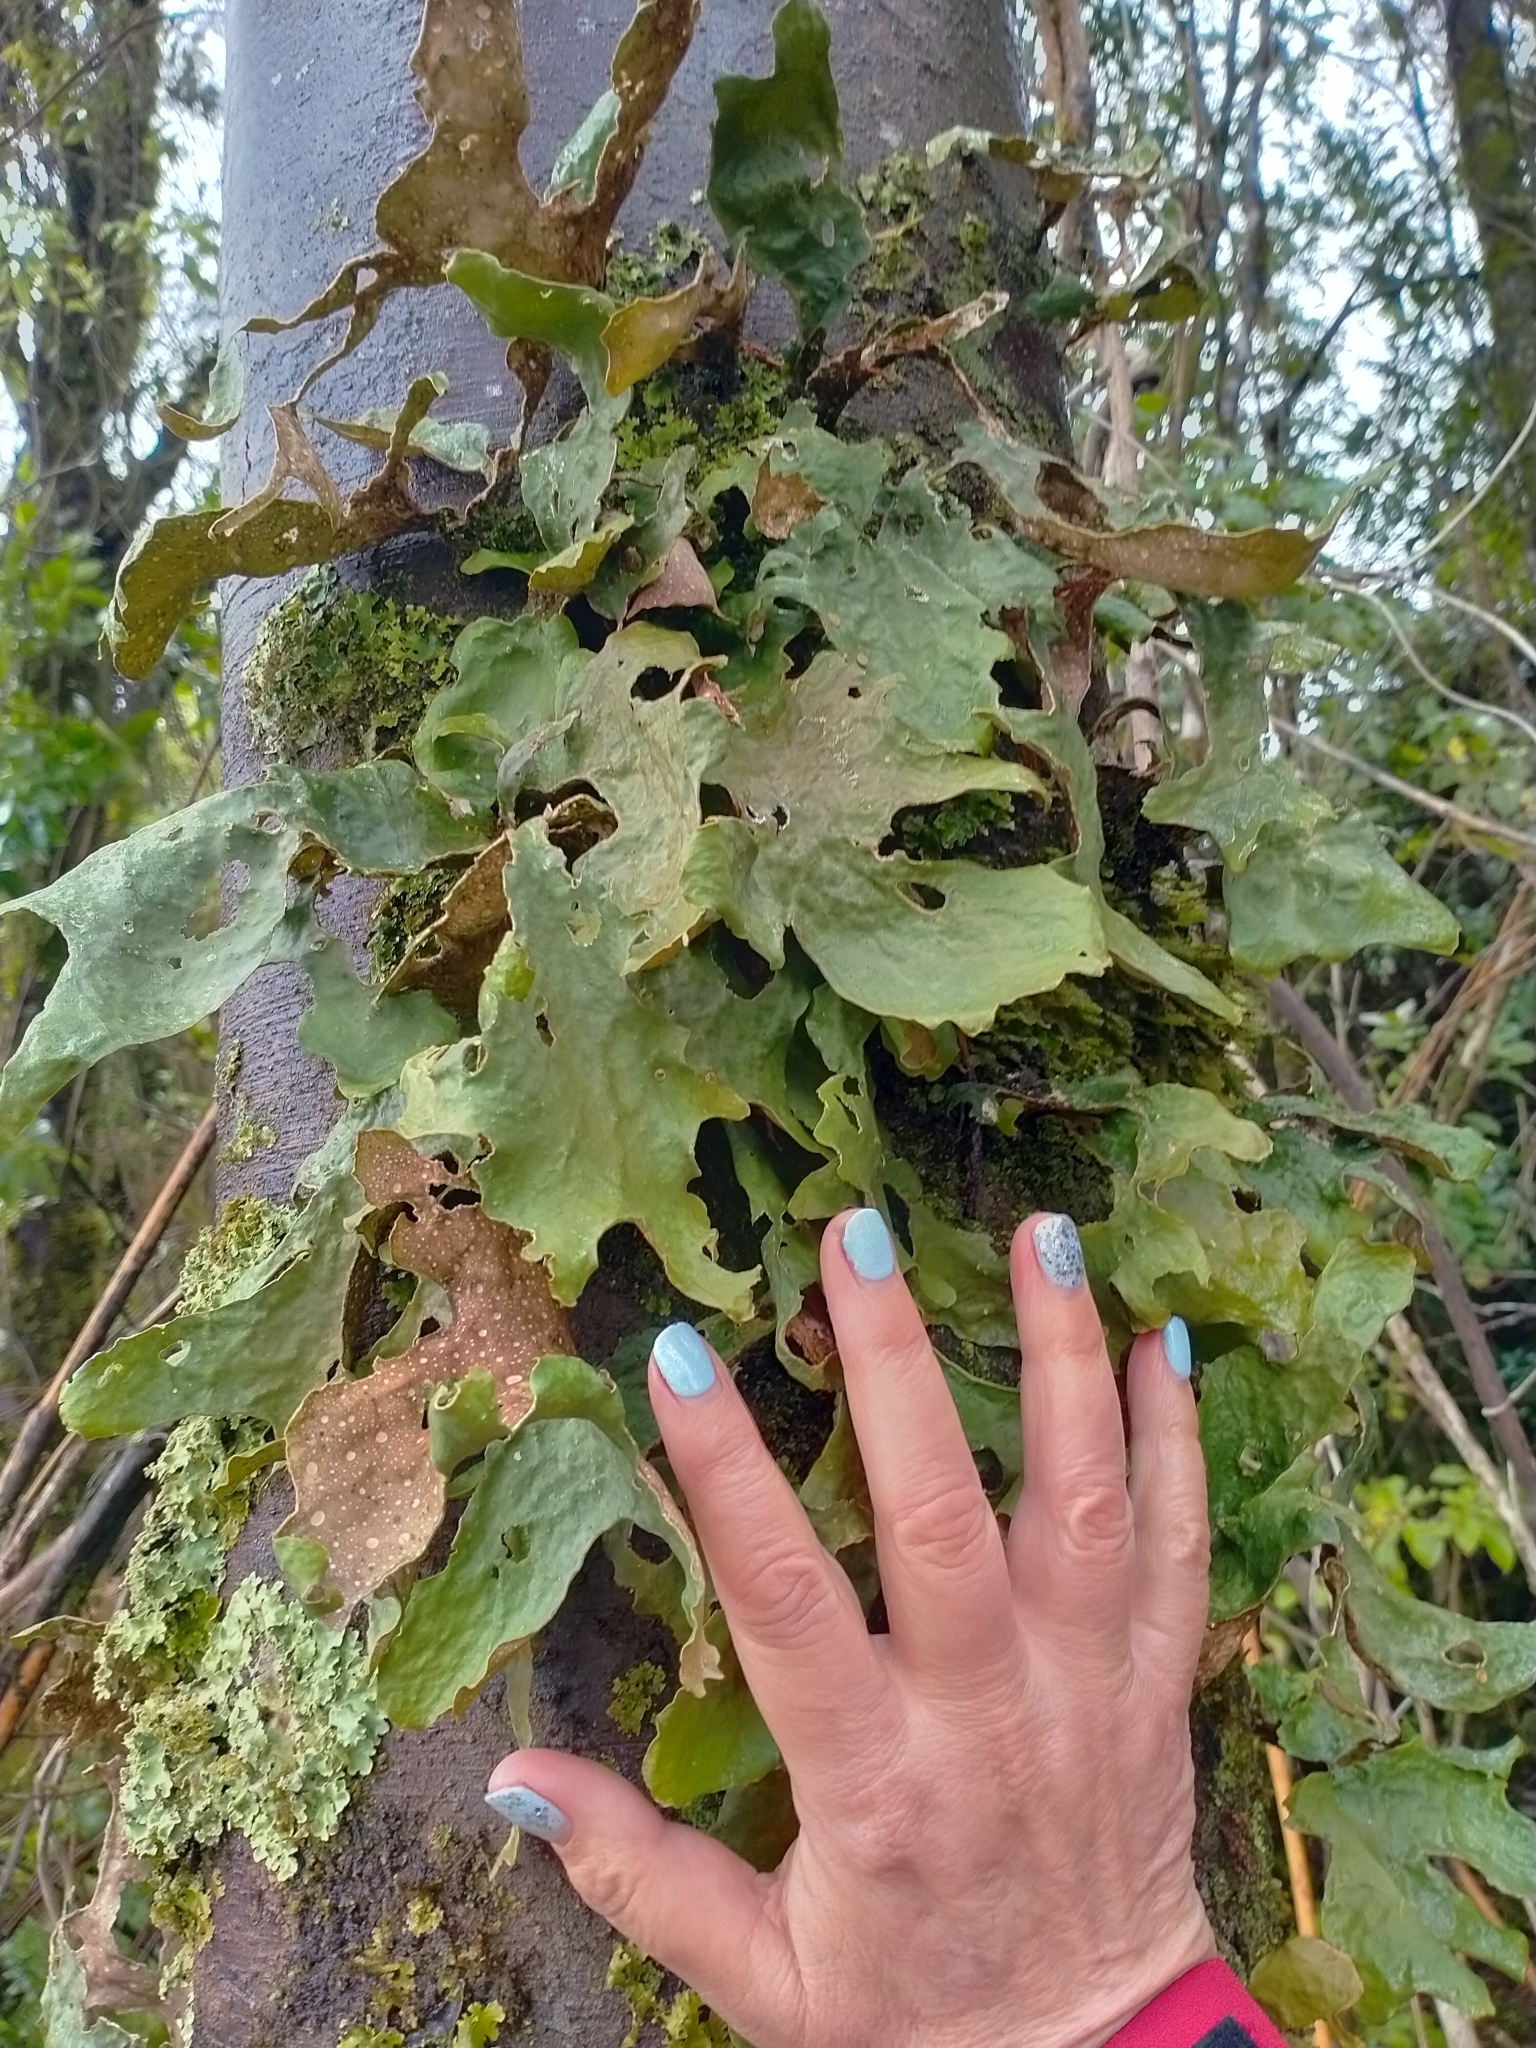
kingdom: Fungi
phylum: Ascomycota
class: Lecanoromycetes
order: Peltigerales
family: Lobariaceae
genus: Sticta
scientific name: Sticta latifrons
